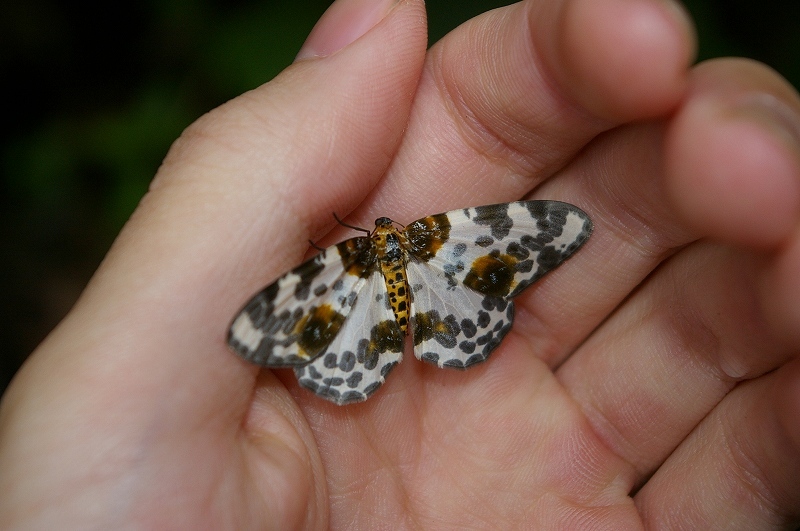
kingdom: Animalia
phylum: Arthropoda
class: Insecta
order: Lepidoptera
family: Geometridae
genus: Abraxas
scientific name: Abraxas niphonibia
